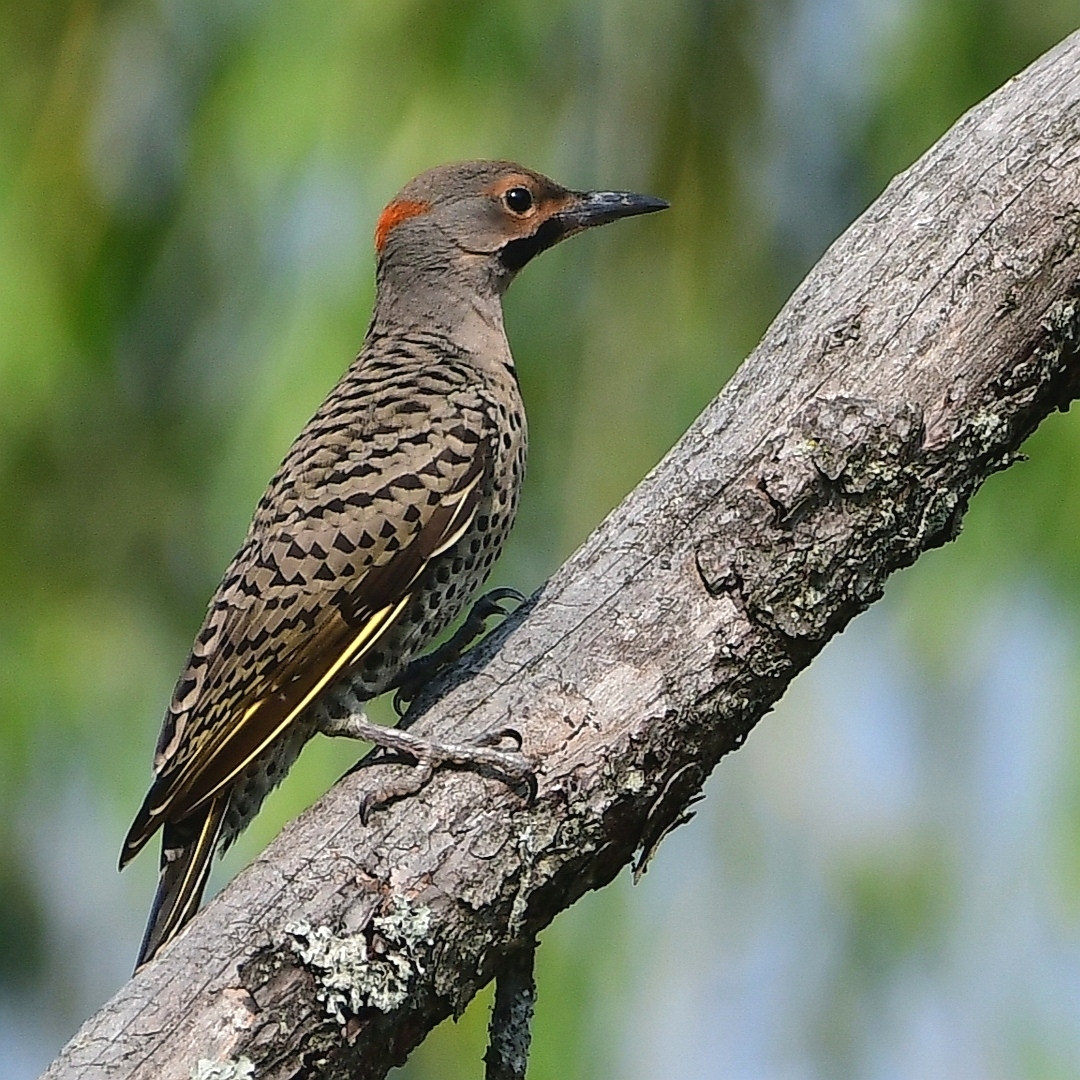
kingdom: Animalia
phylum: Chordata
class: Aves
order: Piciformes
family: Picidae
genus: Colaptes
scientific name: Colaptes auratus
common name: Northern flicker
